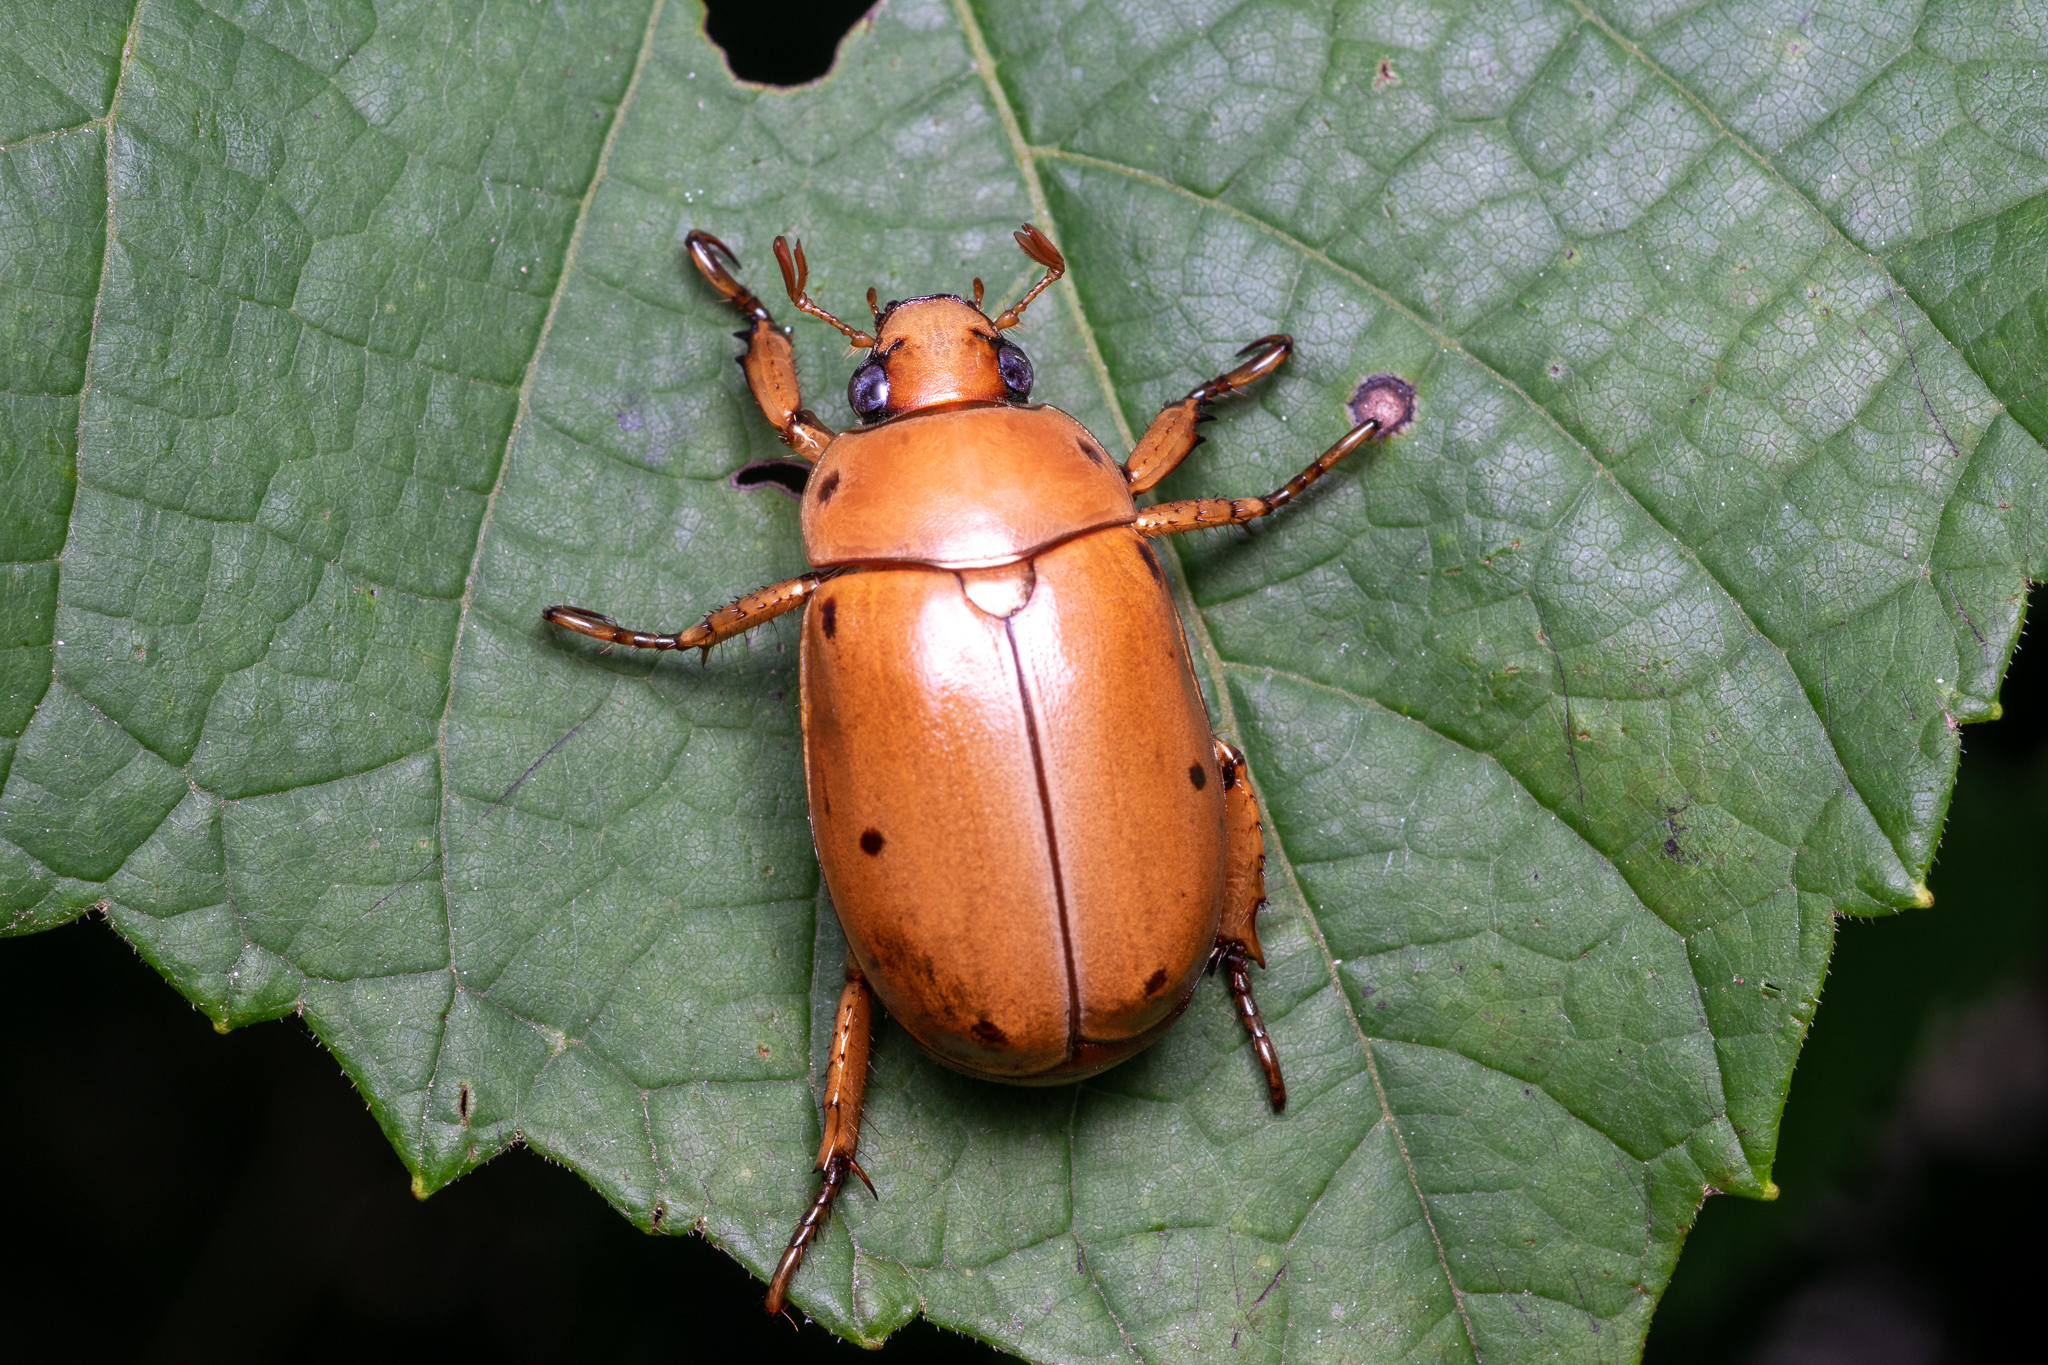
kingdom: Animalia
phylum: Arthropoda
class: Insecta
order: Coleoptera
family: Scarabaeidae
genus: Pelidnota
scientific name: Pelidnota punctata
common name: Grapevine beetle
